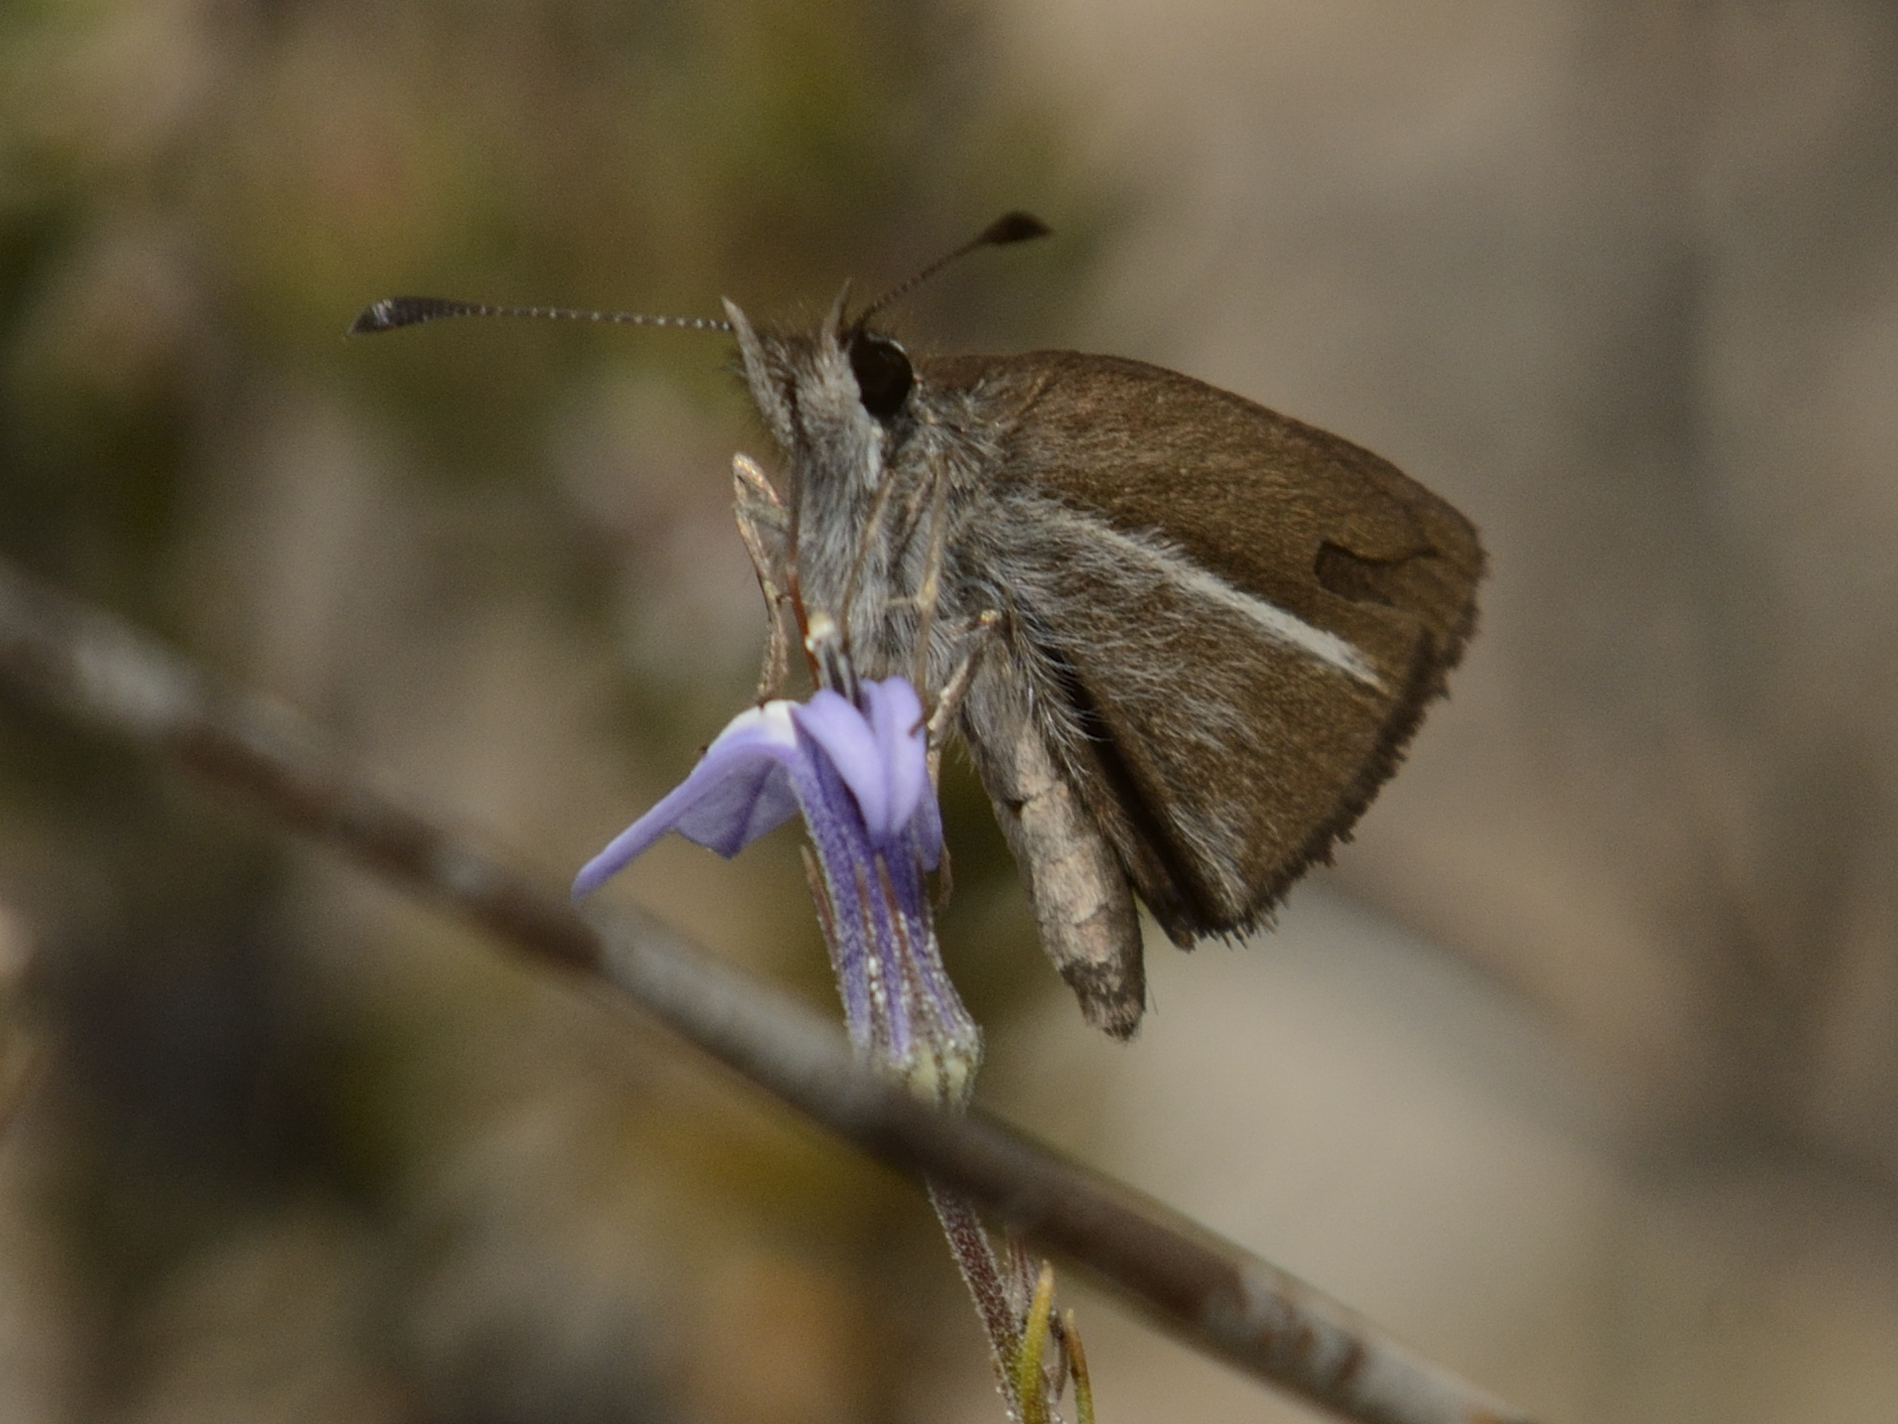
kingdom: Animalia
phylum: Arthropoda
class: Insecta
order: Lepidoptera
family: Hesperiidae
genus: Tsitana
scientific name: Tsitana tulbagha
